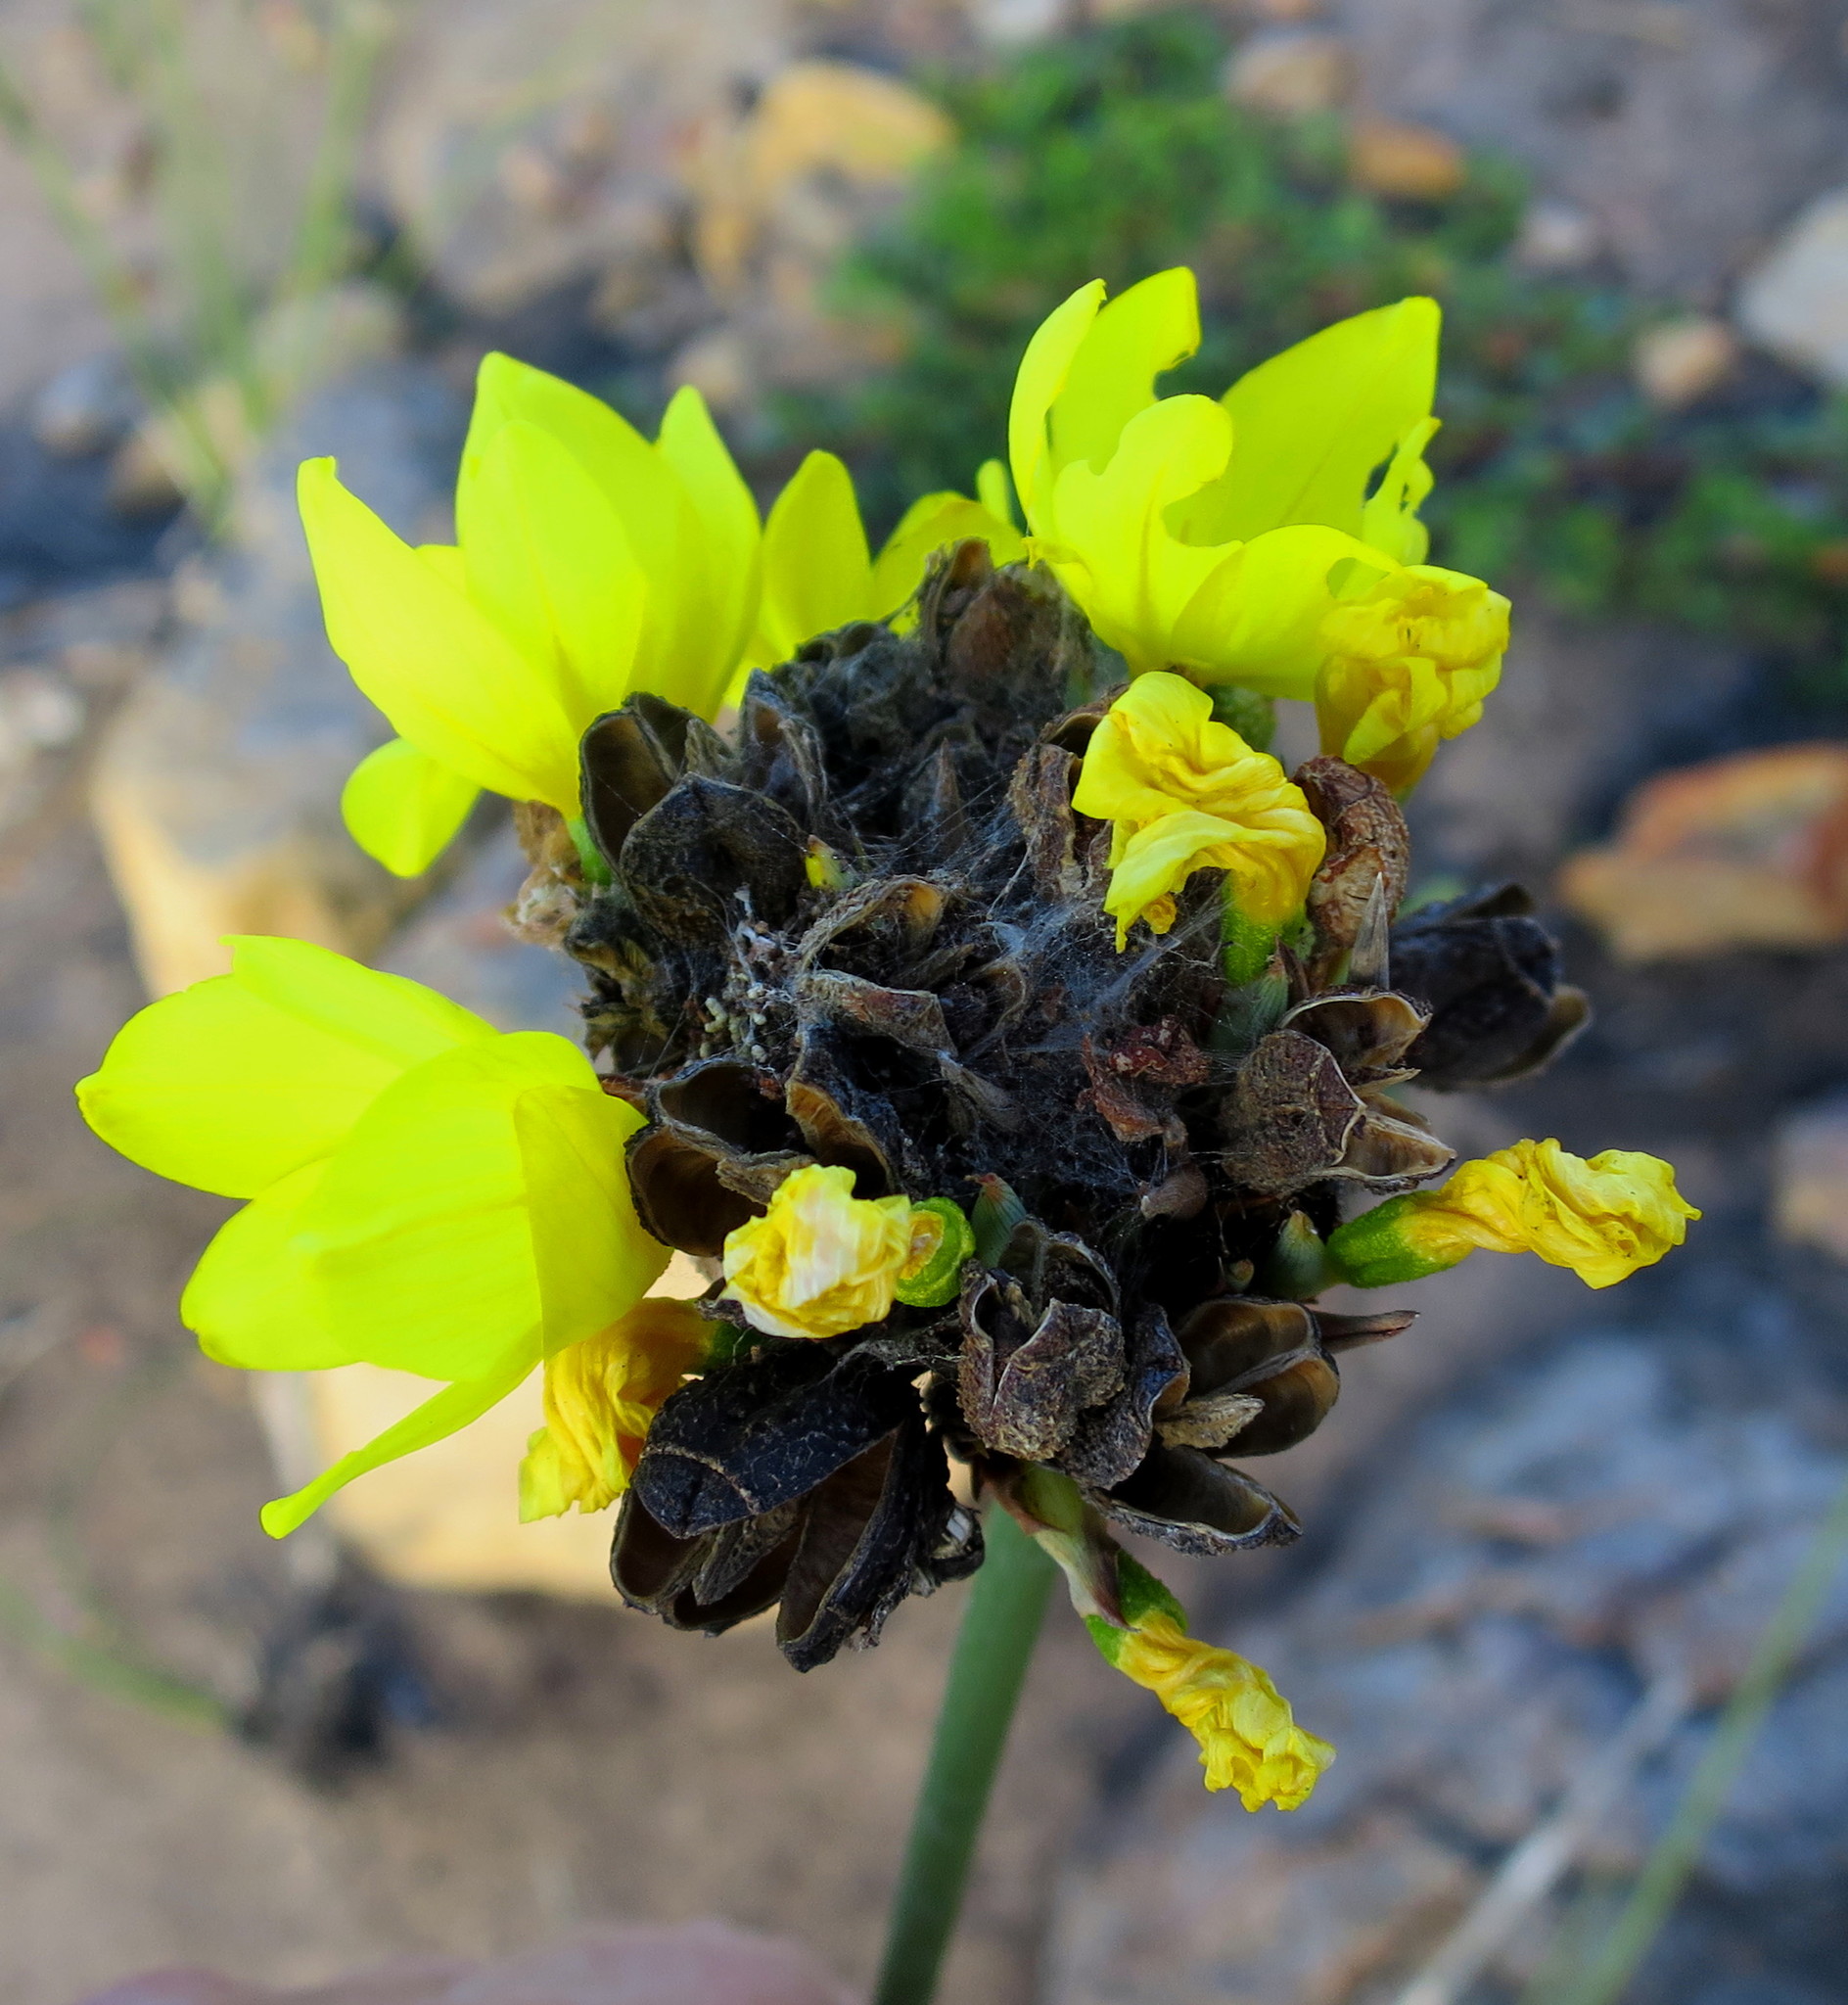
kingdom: Plantae
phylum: Tracheophyta
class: Liliopsida
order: Asparagales
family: Iridaceae
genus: Bobartia
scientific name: Bobartia robusta
